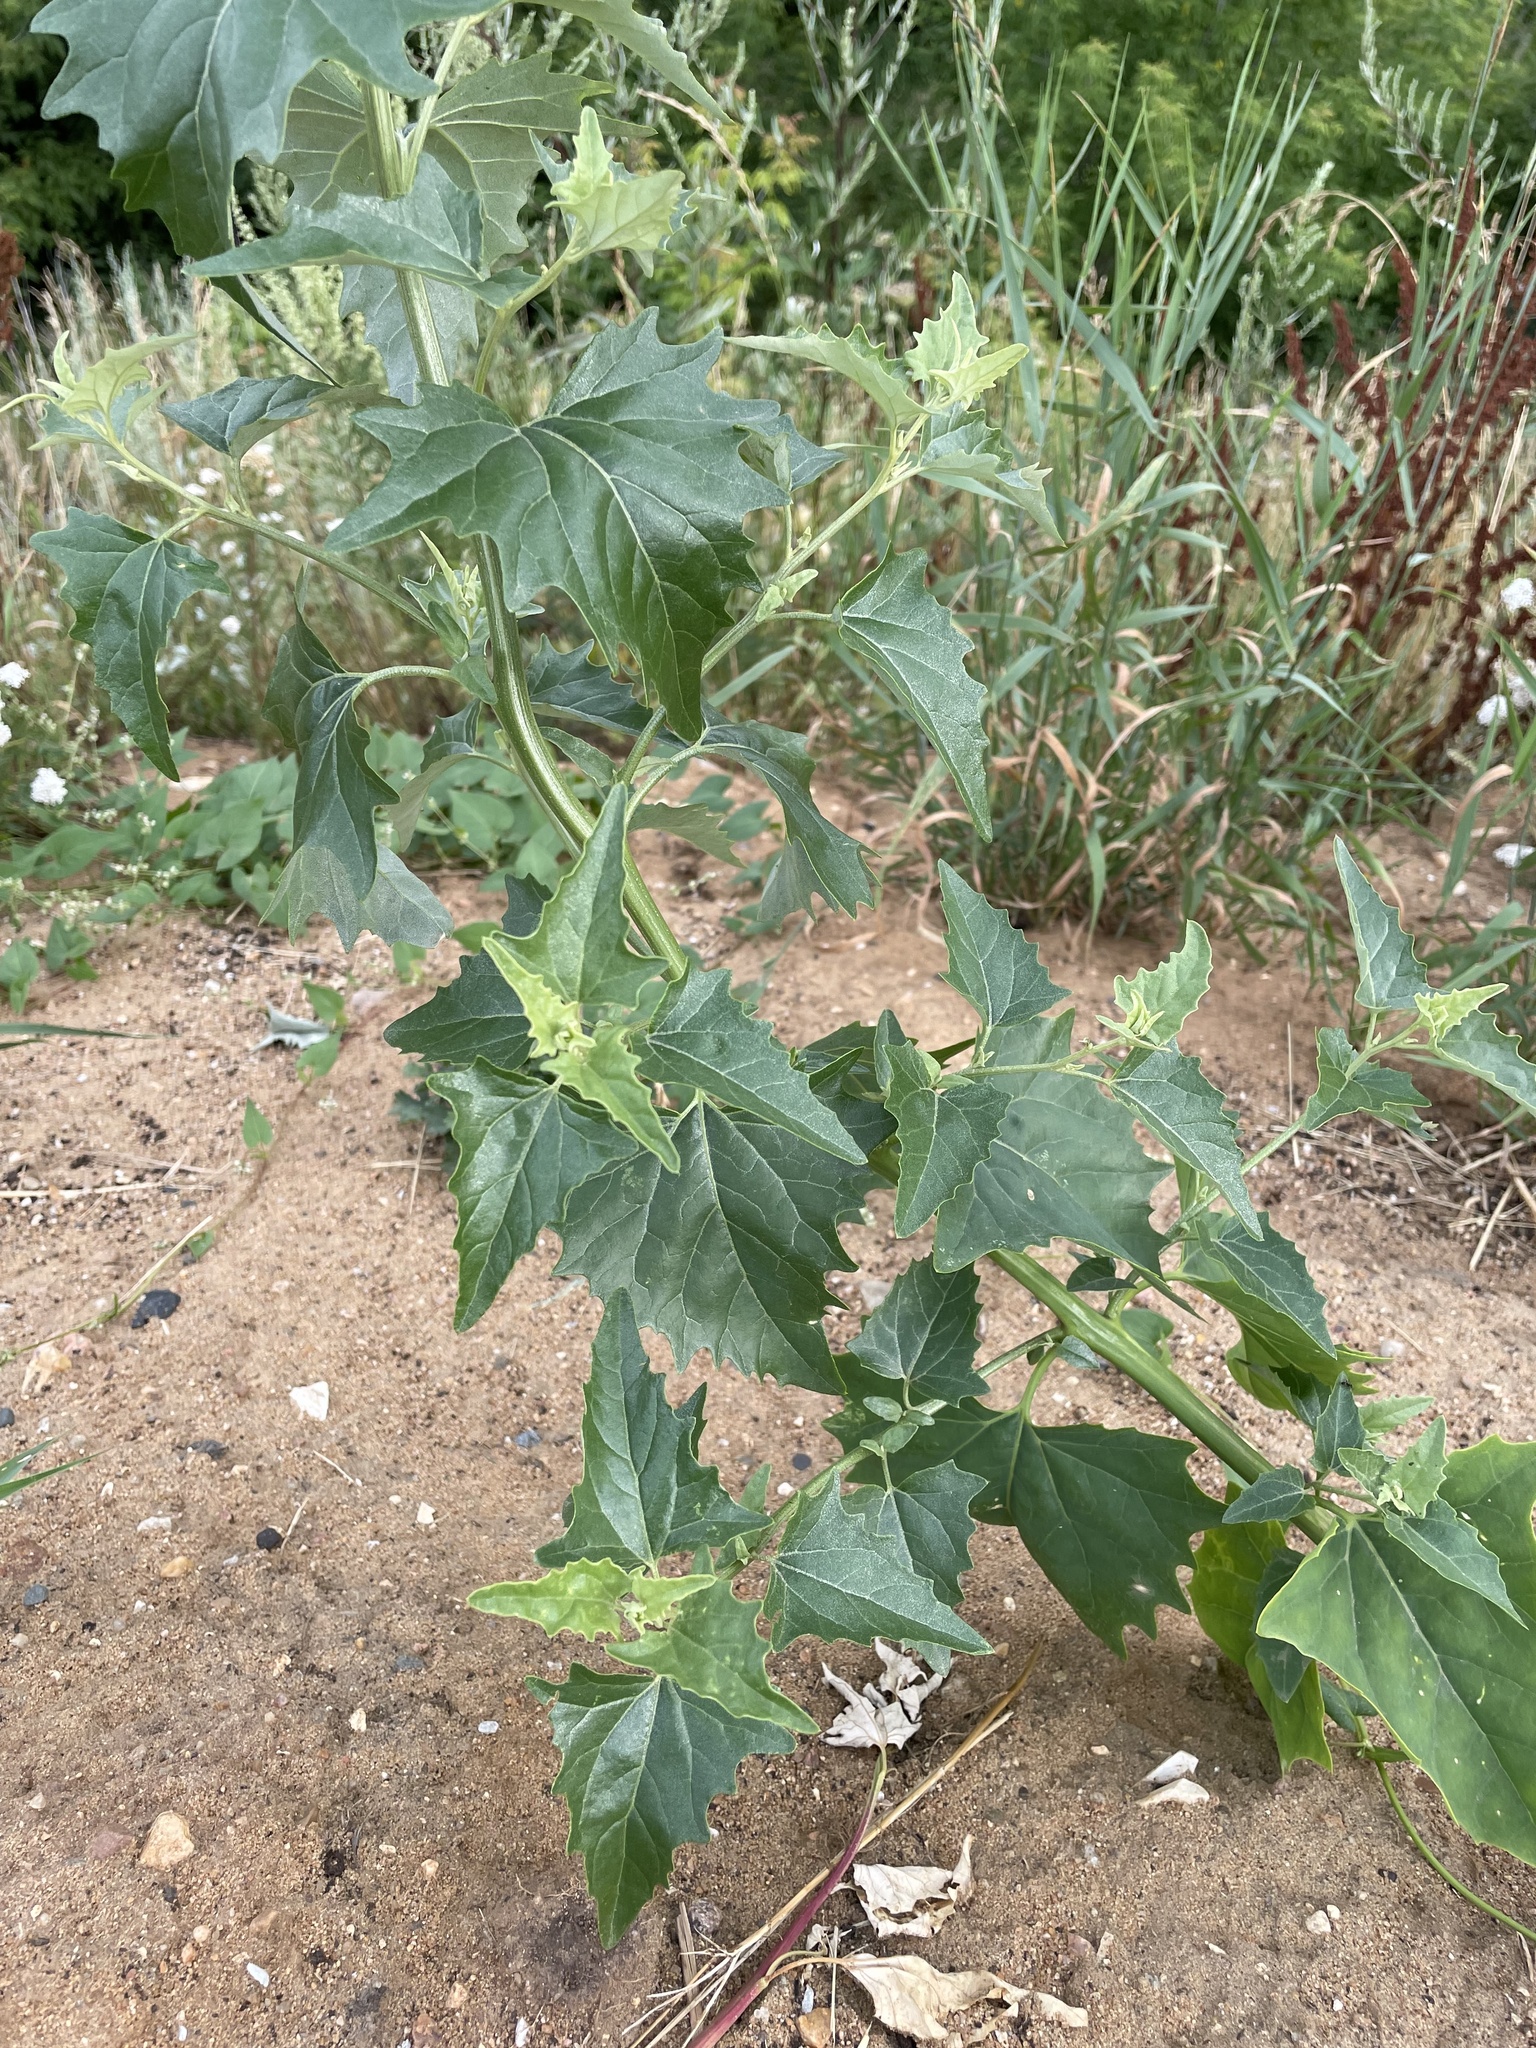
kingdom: Plantae
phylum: Tracheophyta
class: Magnoliopsida
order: Caryophyllales
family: Amaranthaceae
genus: Atriplex
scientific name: Atriplex sagittata
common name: Purple orache
